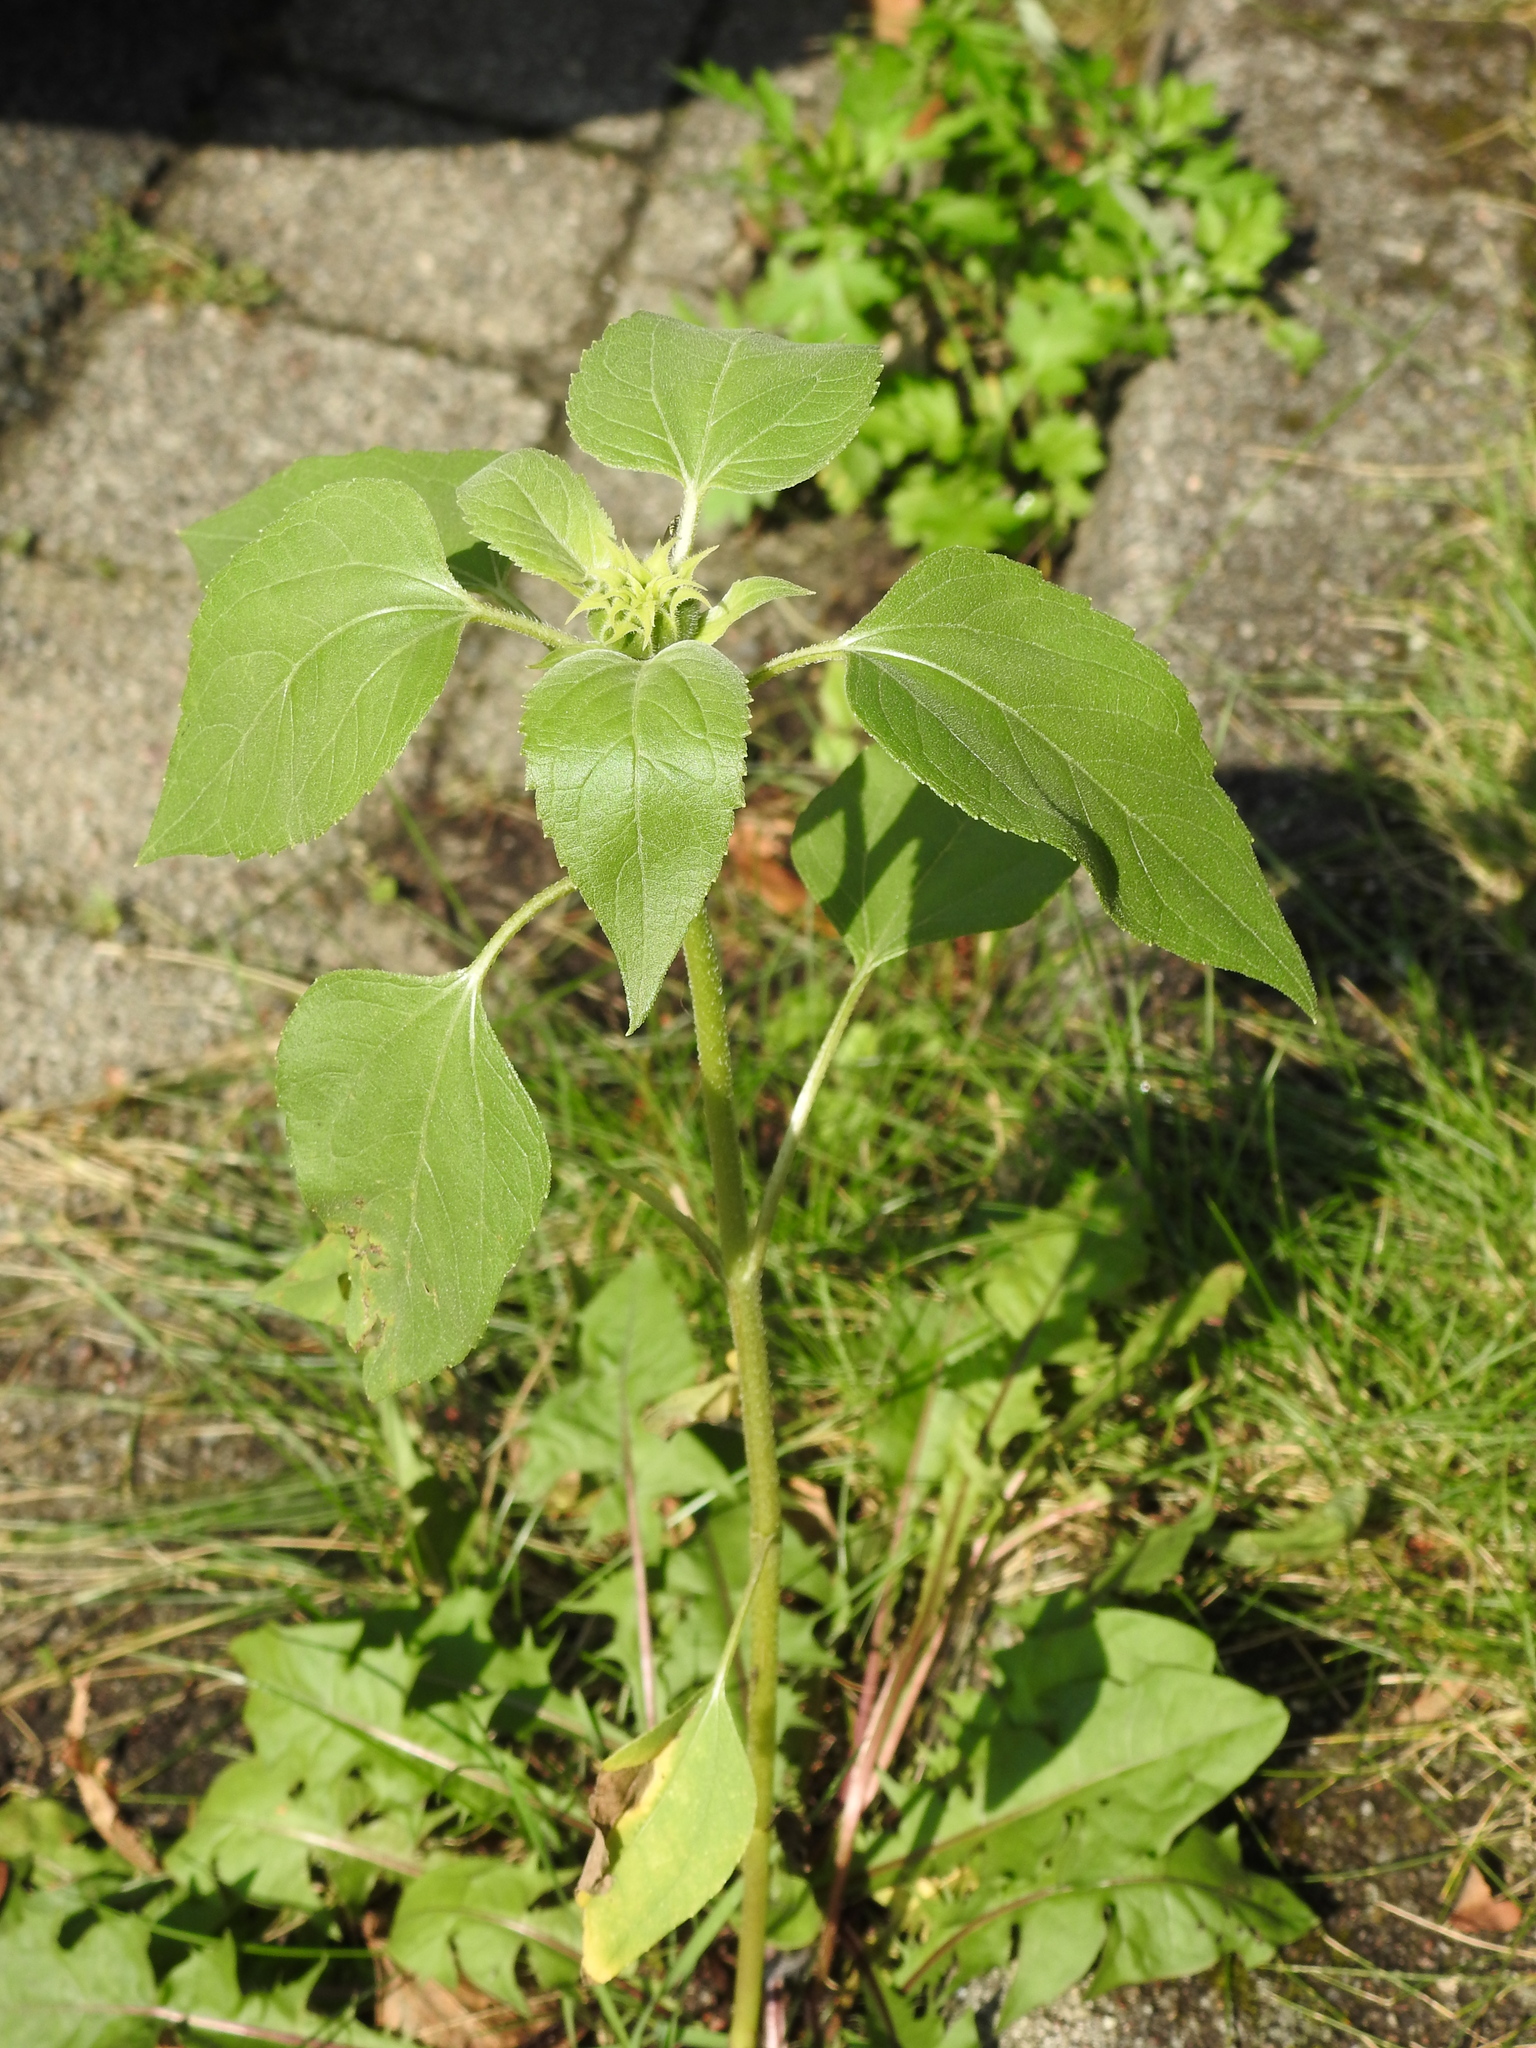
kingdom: Plantae
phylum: Tracheophyta
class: Magnoliopsida
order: Asterales
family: Asteraceae
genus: Helianthus
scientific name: Helianthus annuus
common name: Sunflower
